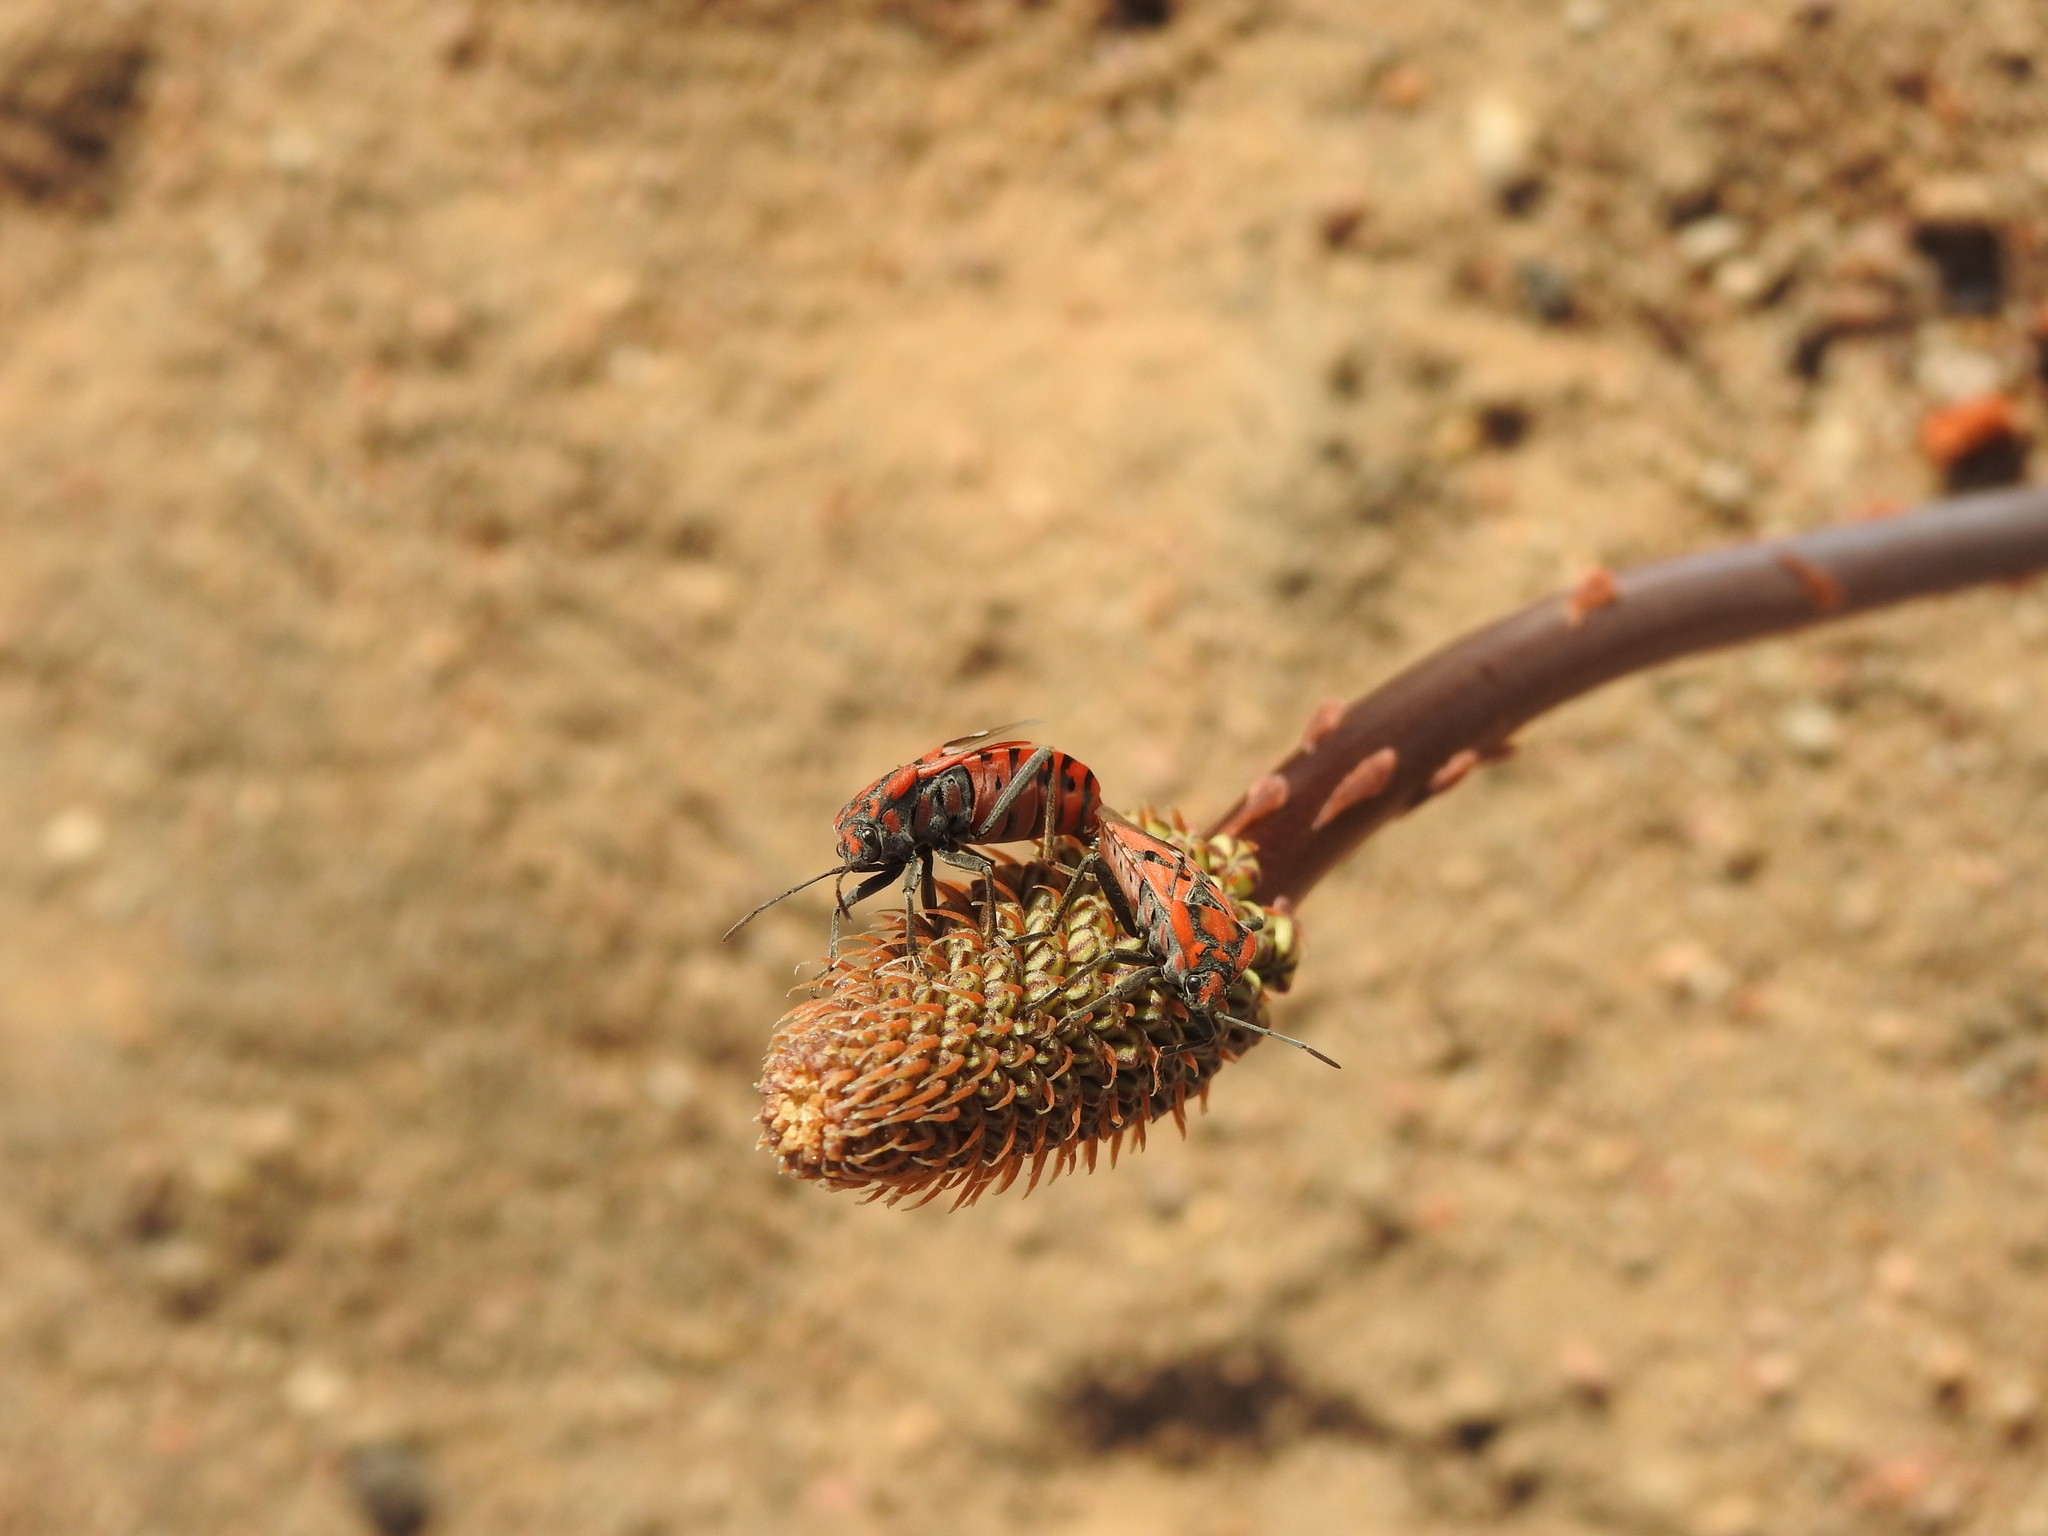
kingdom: Animalia
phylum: Arthropoda
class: Insecta
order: Hemiptera
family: Lygaeidae
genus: Spilostethus
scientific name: Spilostethus pandurus
